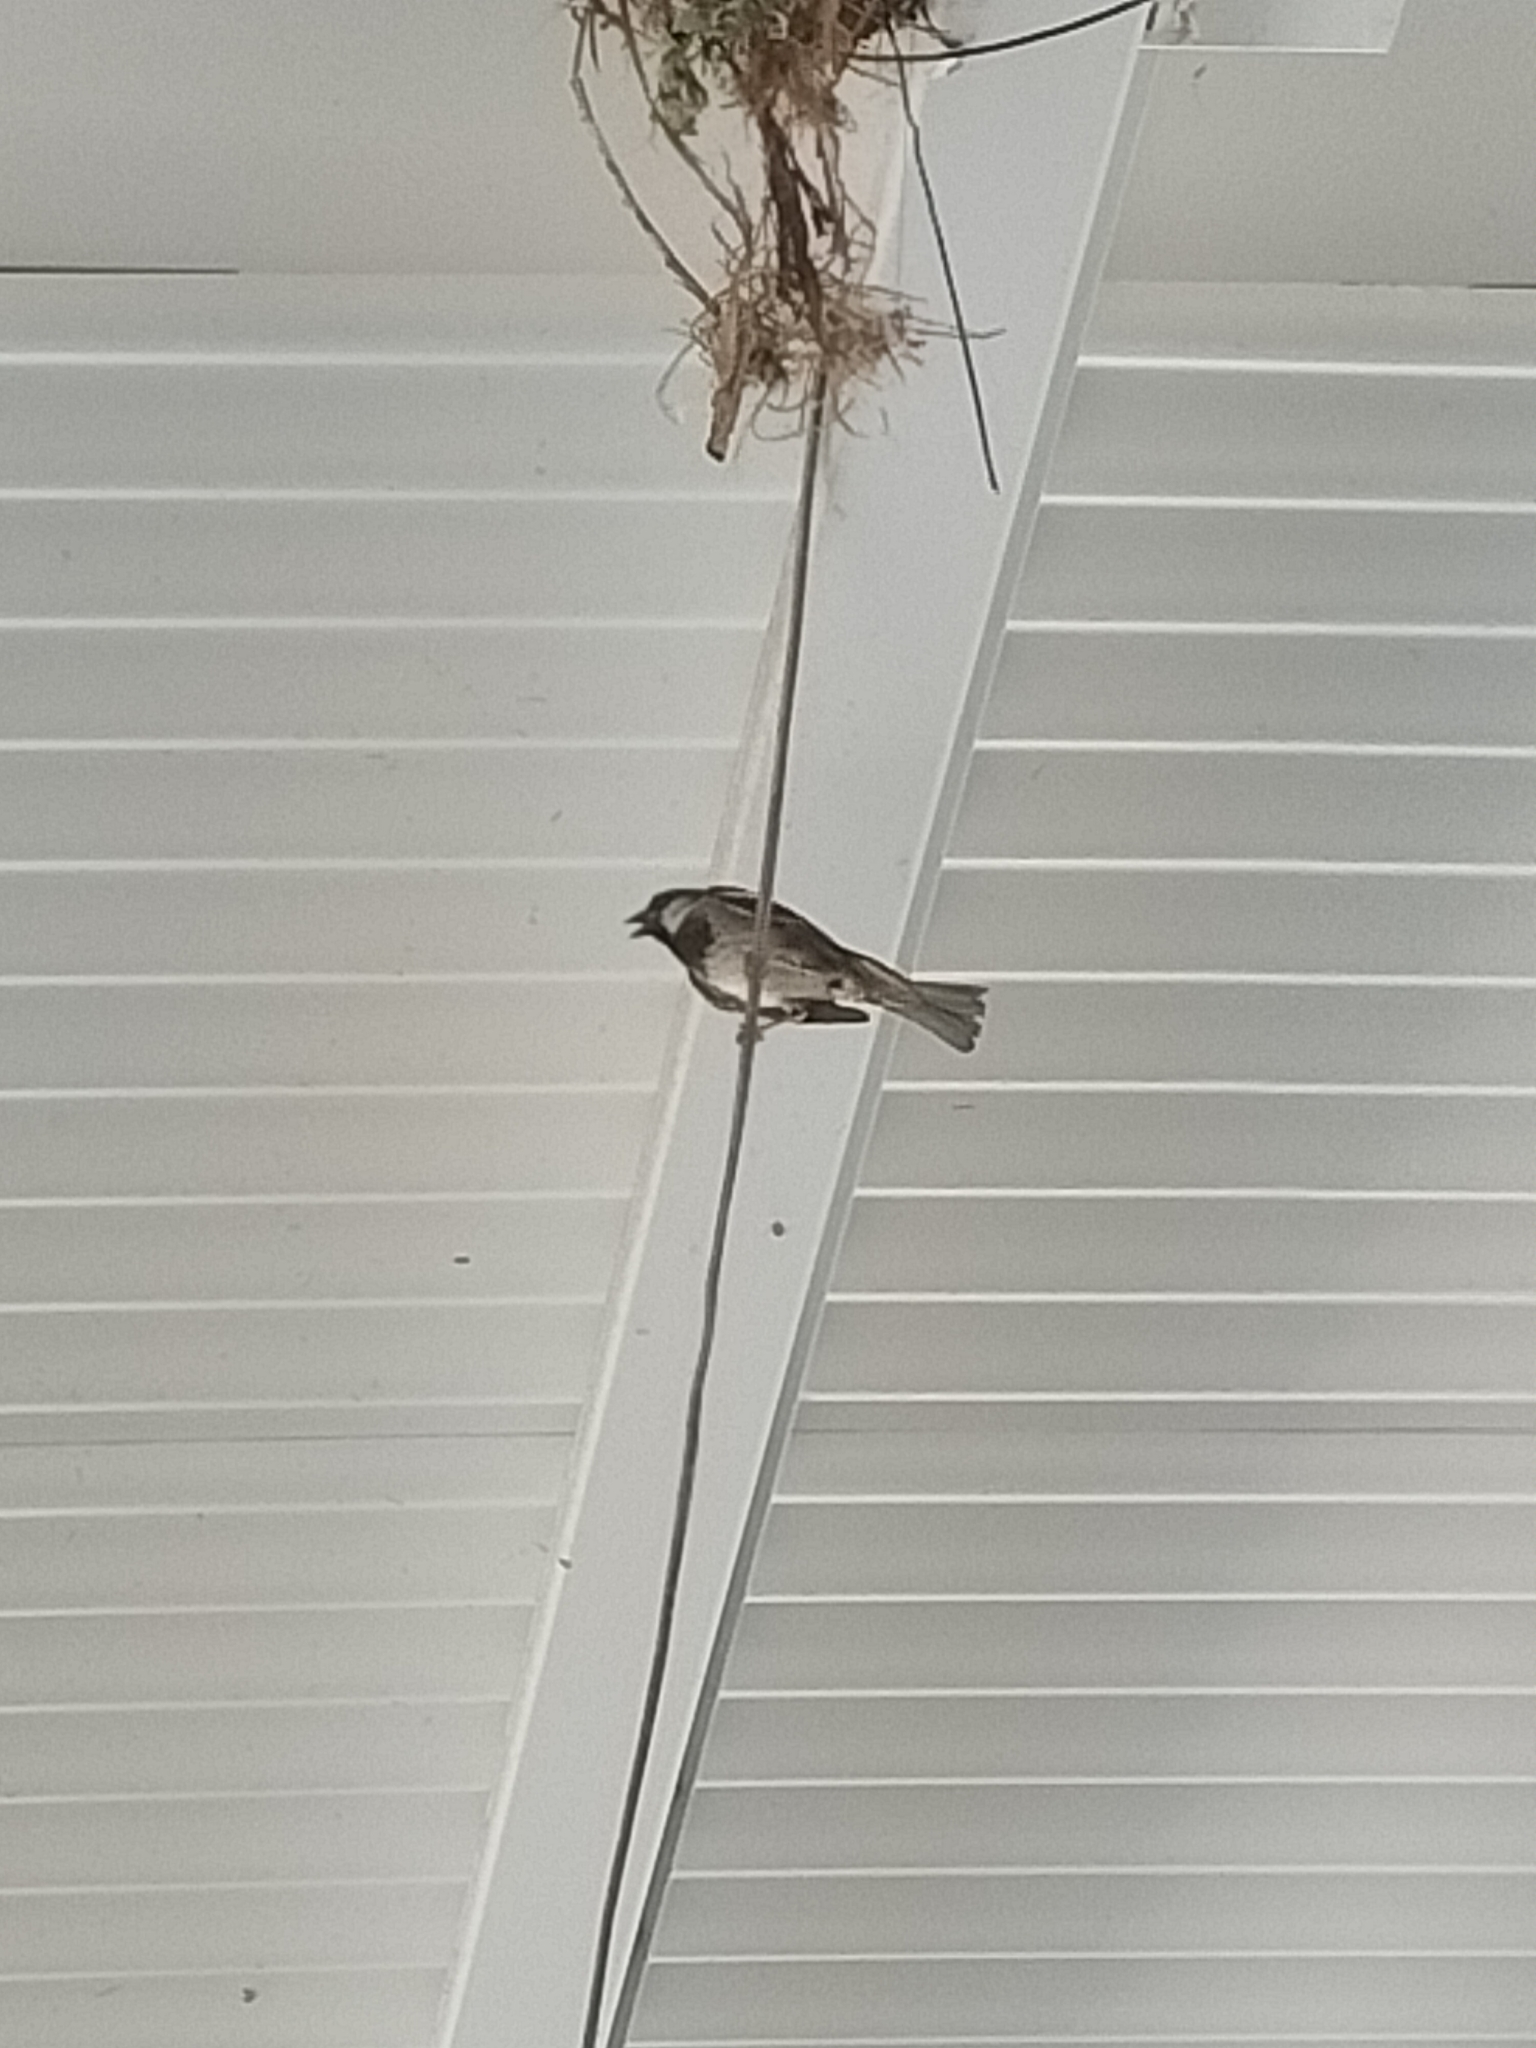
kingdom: Animalia
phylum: Chordata
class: Aves
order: Passeriformes
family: Passeridae
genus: Passer
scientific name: Passer domesticus
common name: House sparrow
